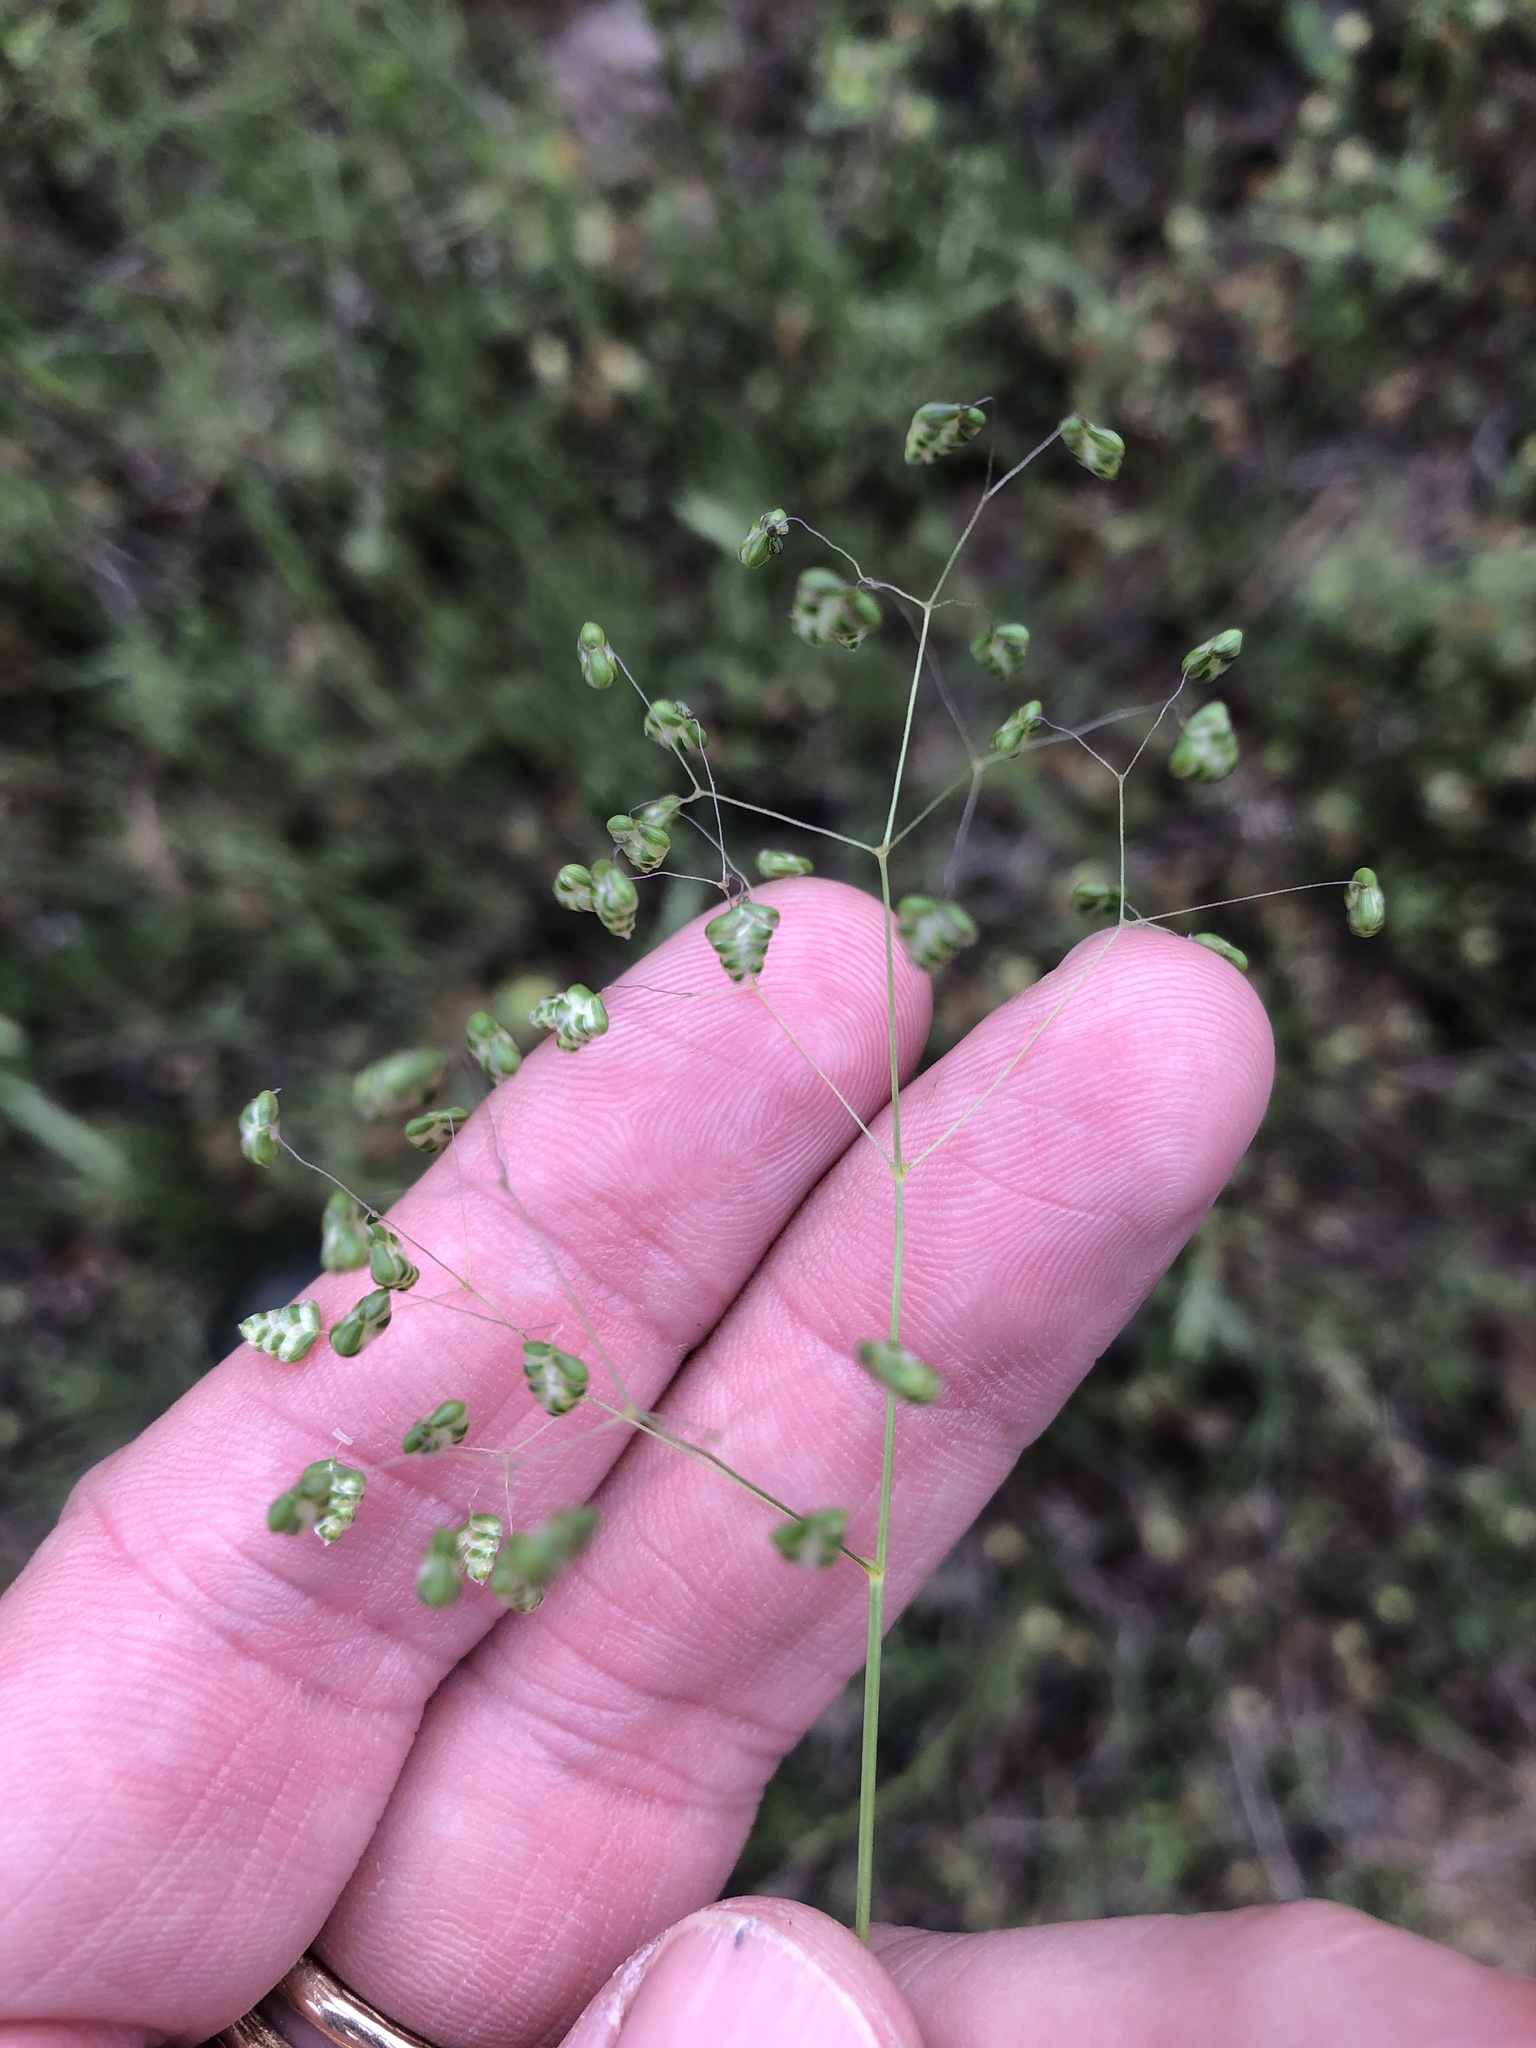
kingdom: Plantae
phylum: Tracheophyta
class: Liliopsida
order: Poales
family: Poaceae
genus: Briza
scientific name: Briza minor
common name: Lesser quaking-grass
